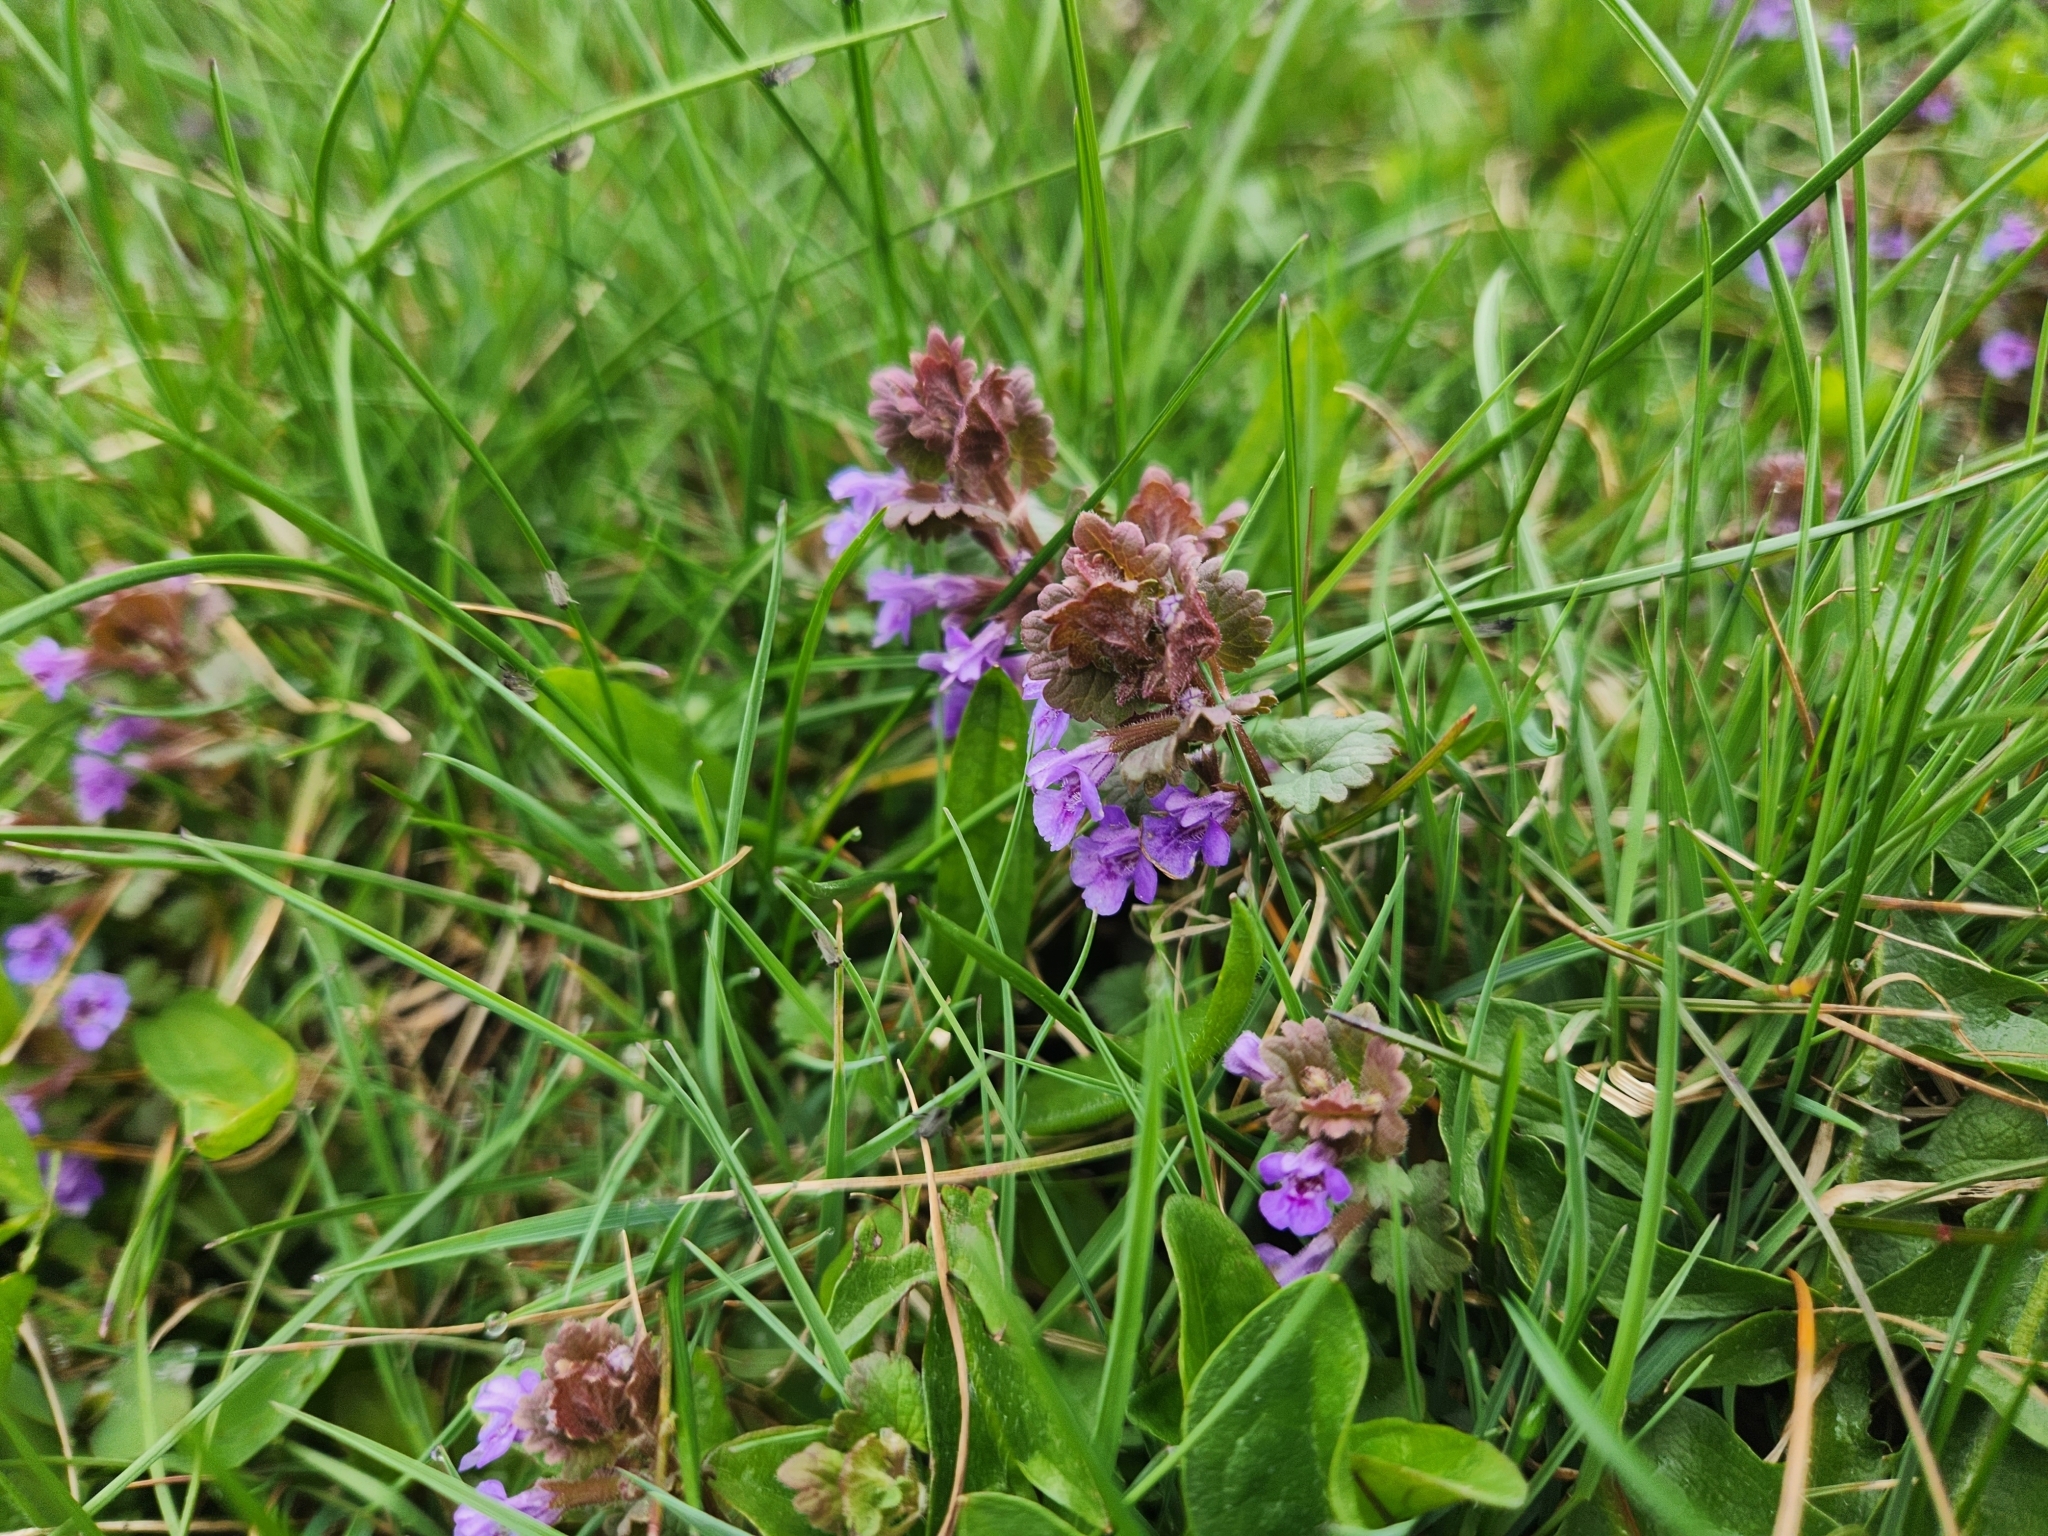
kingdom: Plantae
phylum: Tracheophyta
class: Magnoliopsida
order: Lamiales
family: Lamiaceae
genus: Glechoma
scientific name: Glechoma hederacea
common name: Ground ivy
